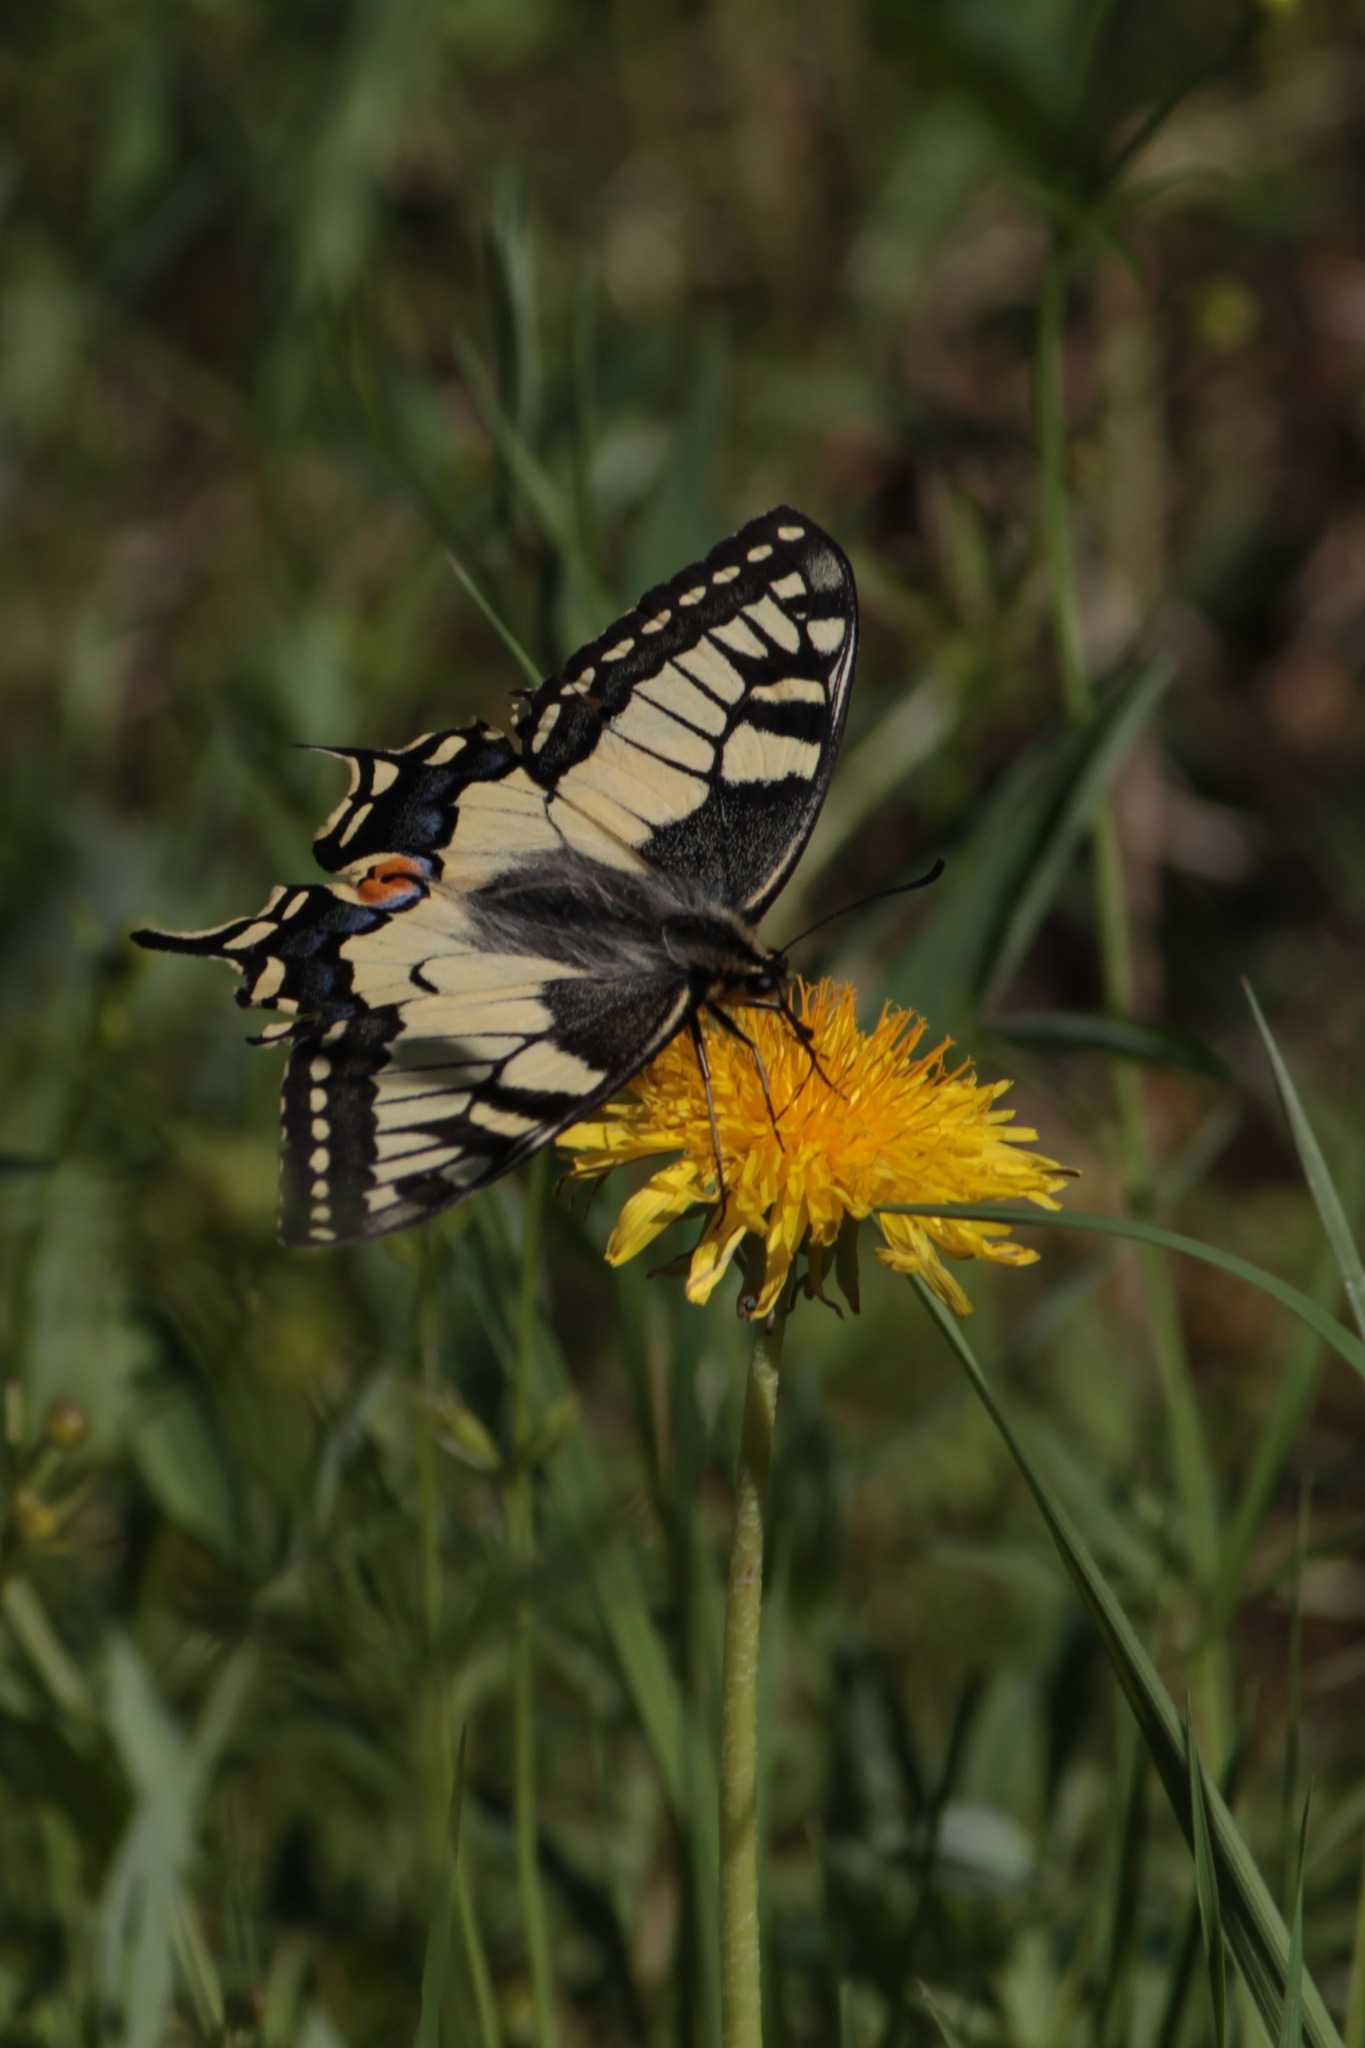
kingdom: Animalia
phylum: Arthropoda
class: Insecta
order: Lepidoptera
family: Papilionidae
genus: Papilio
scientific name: Papilio machaon
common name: Swallowtail
